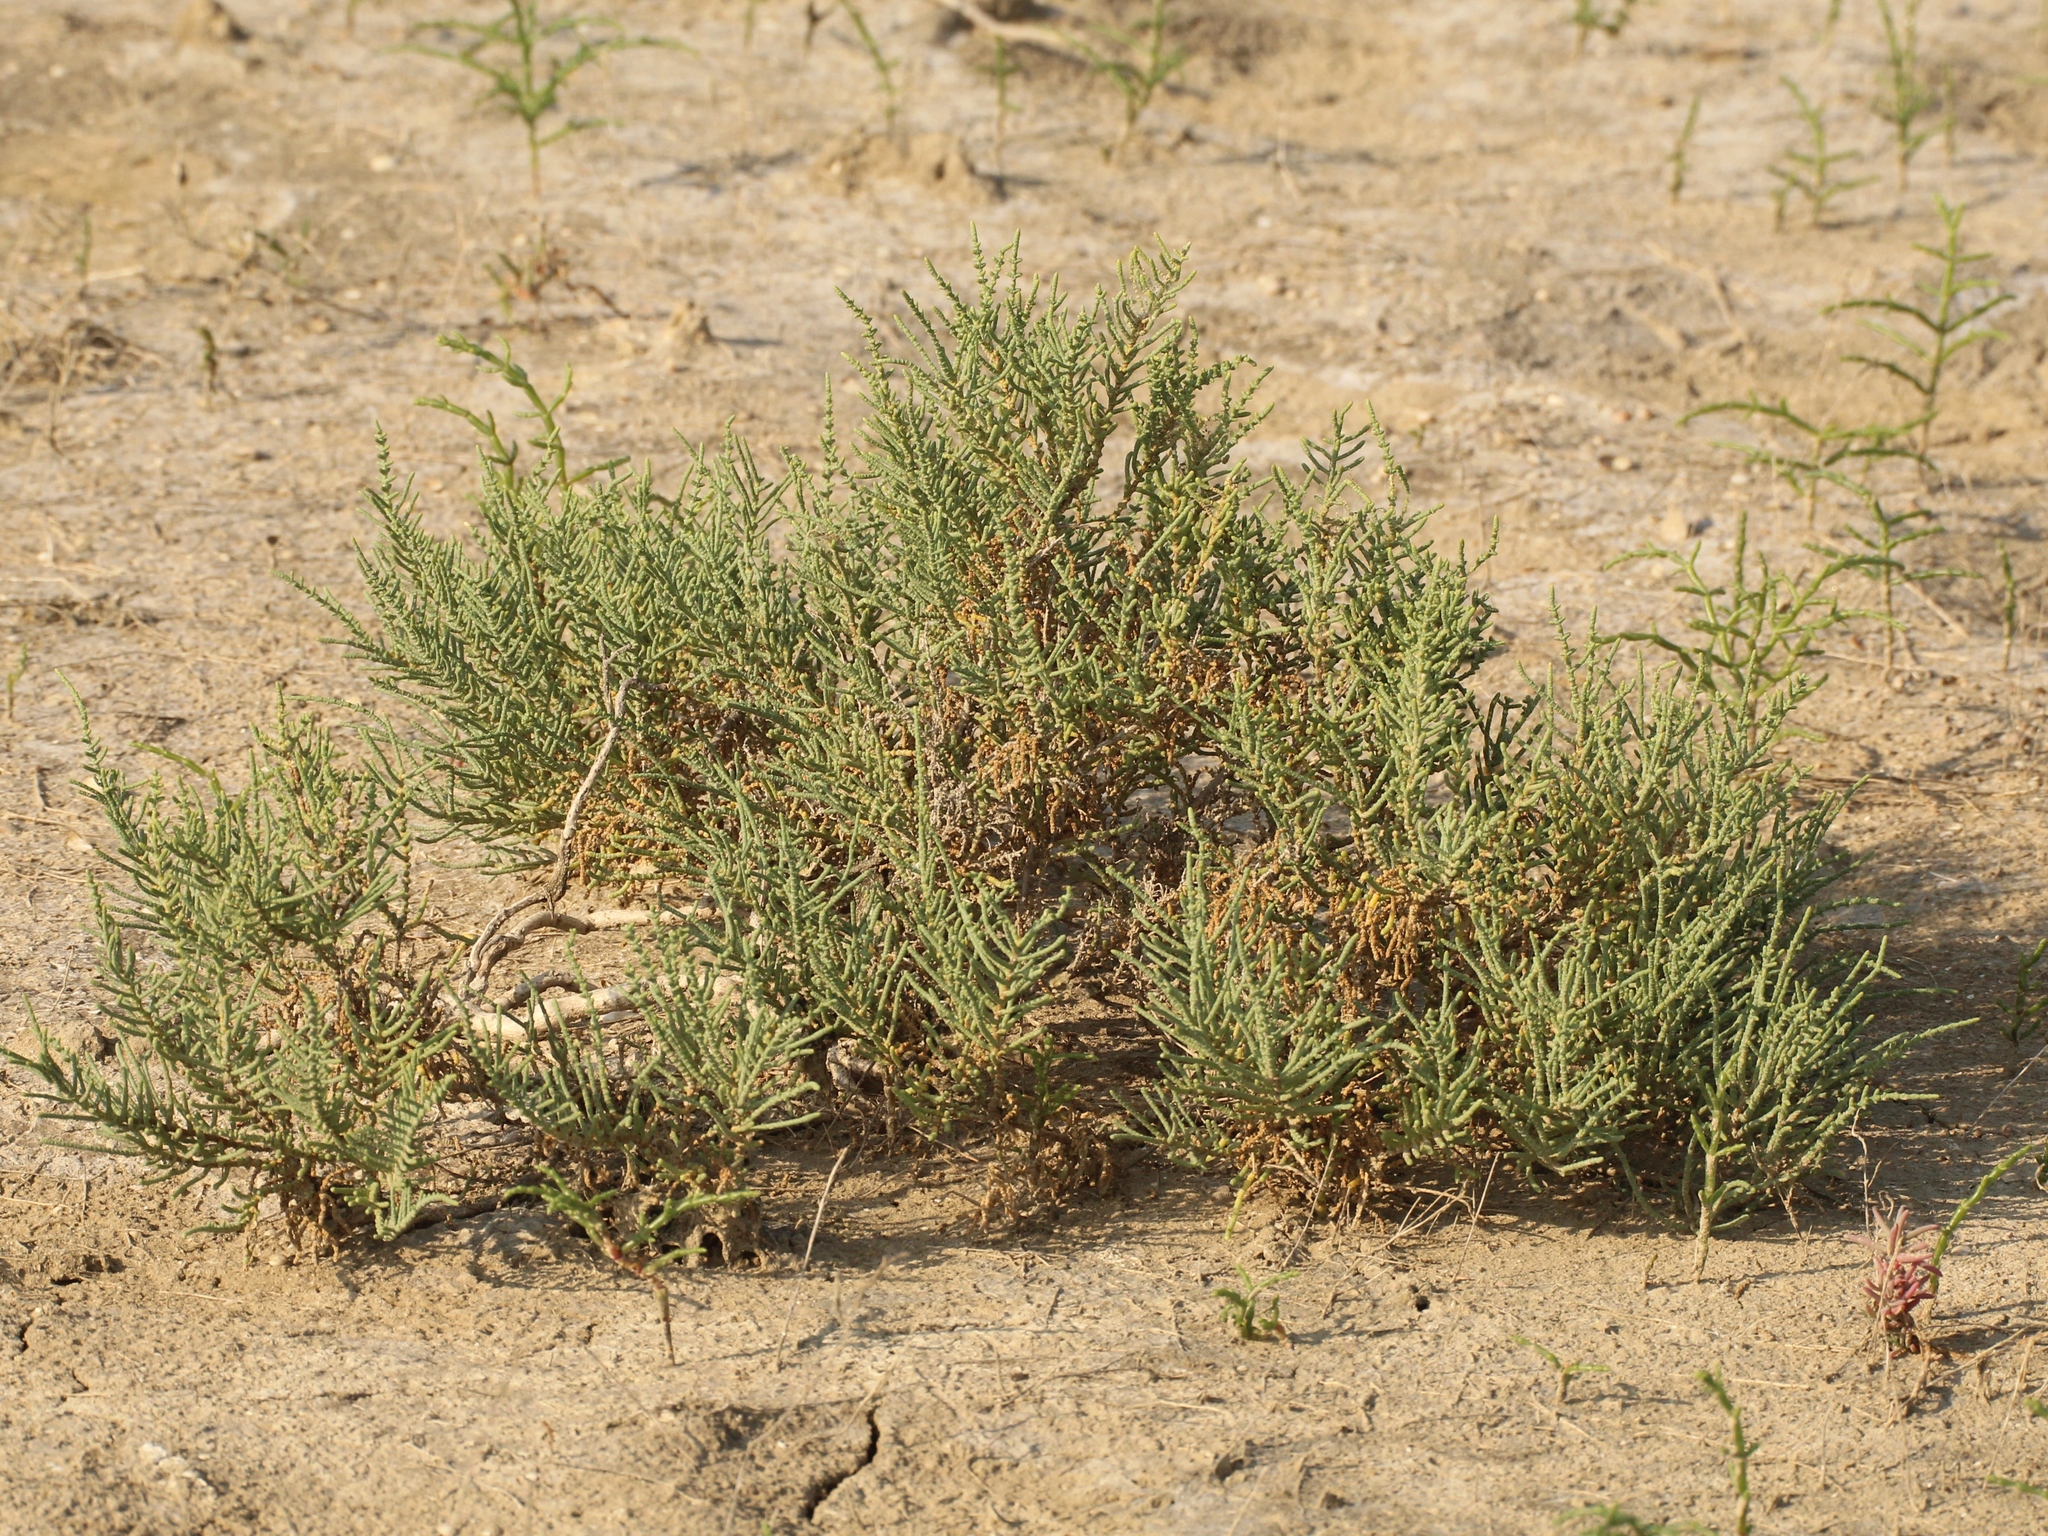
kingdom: Plantae
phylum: Tracheophyta
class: Magnoliopsida
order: Caryophyllales
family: Amaranthaceae
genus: Halocnemum
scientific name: Halocnemum strobilaceum
